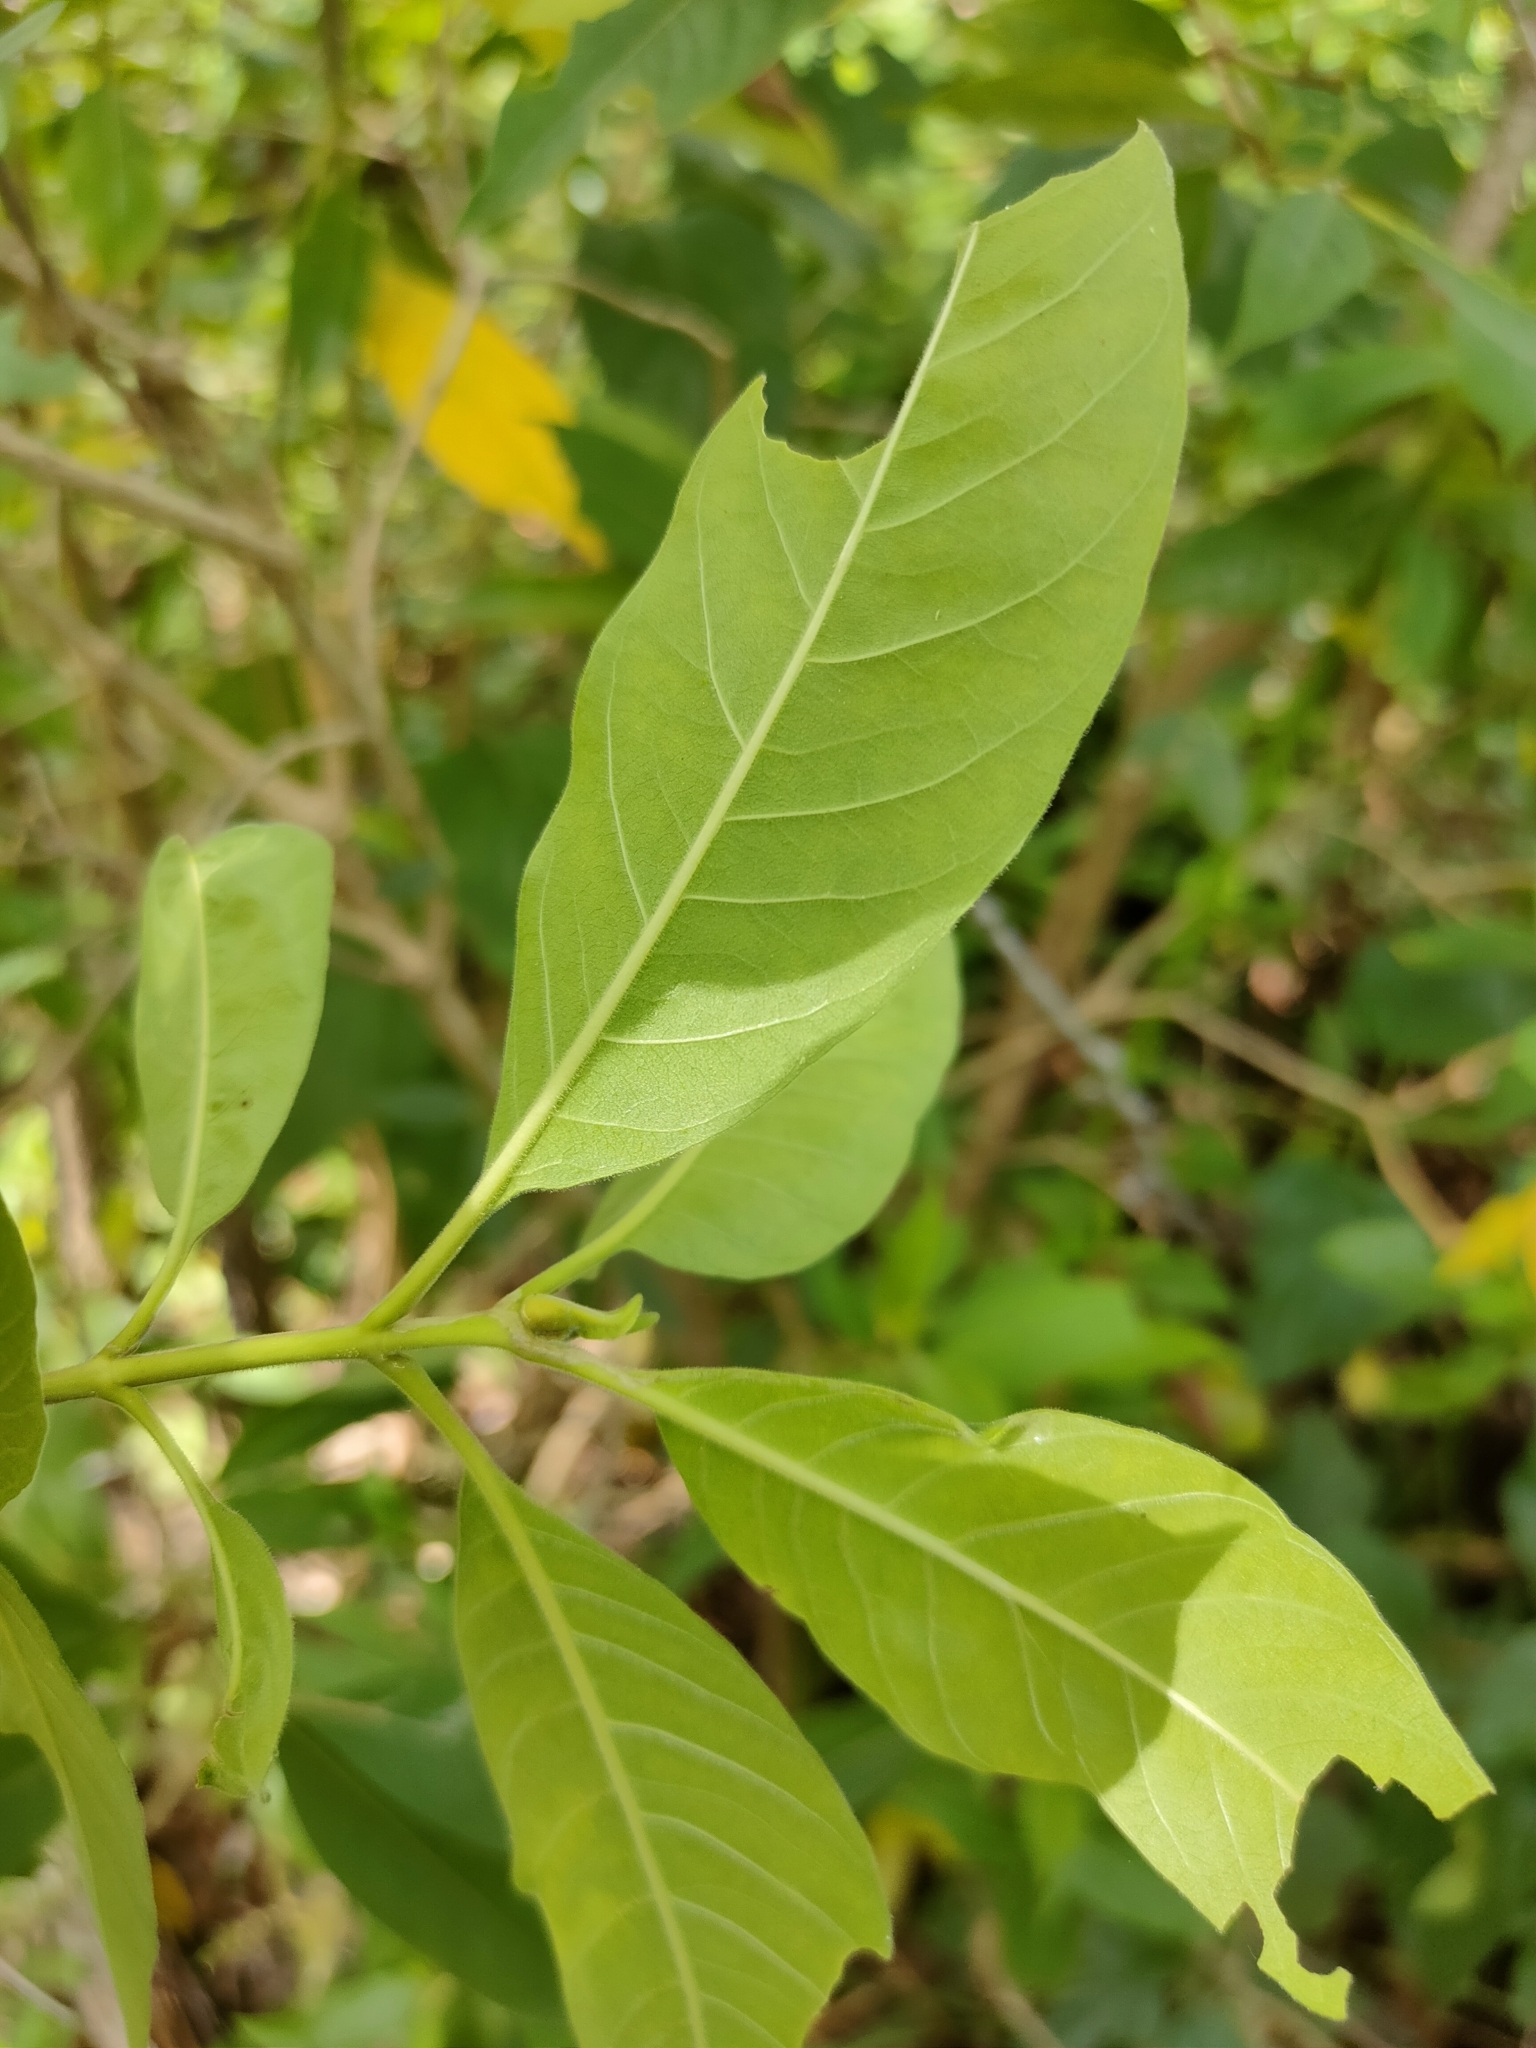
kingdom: Plantae
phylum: Tracheophyta
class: Magnoliopsida
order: Gentianales
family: Apocynaceae
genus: Alstonia
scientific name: Alstonia mollis
